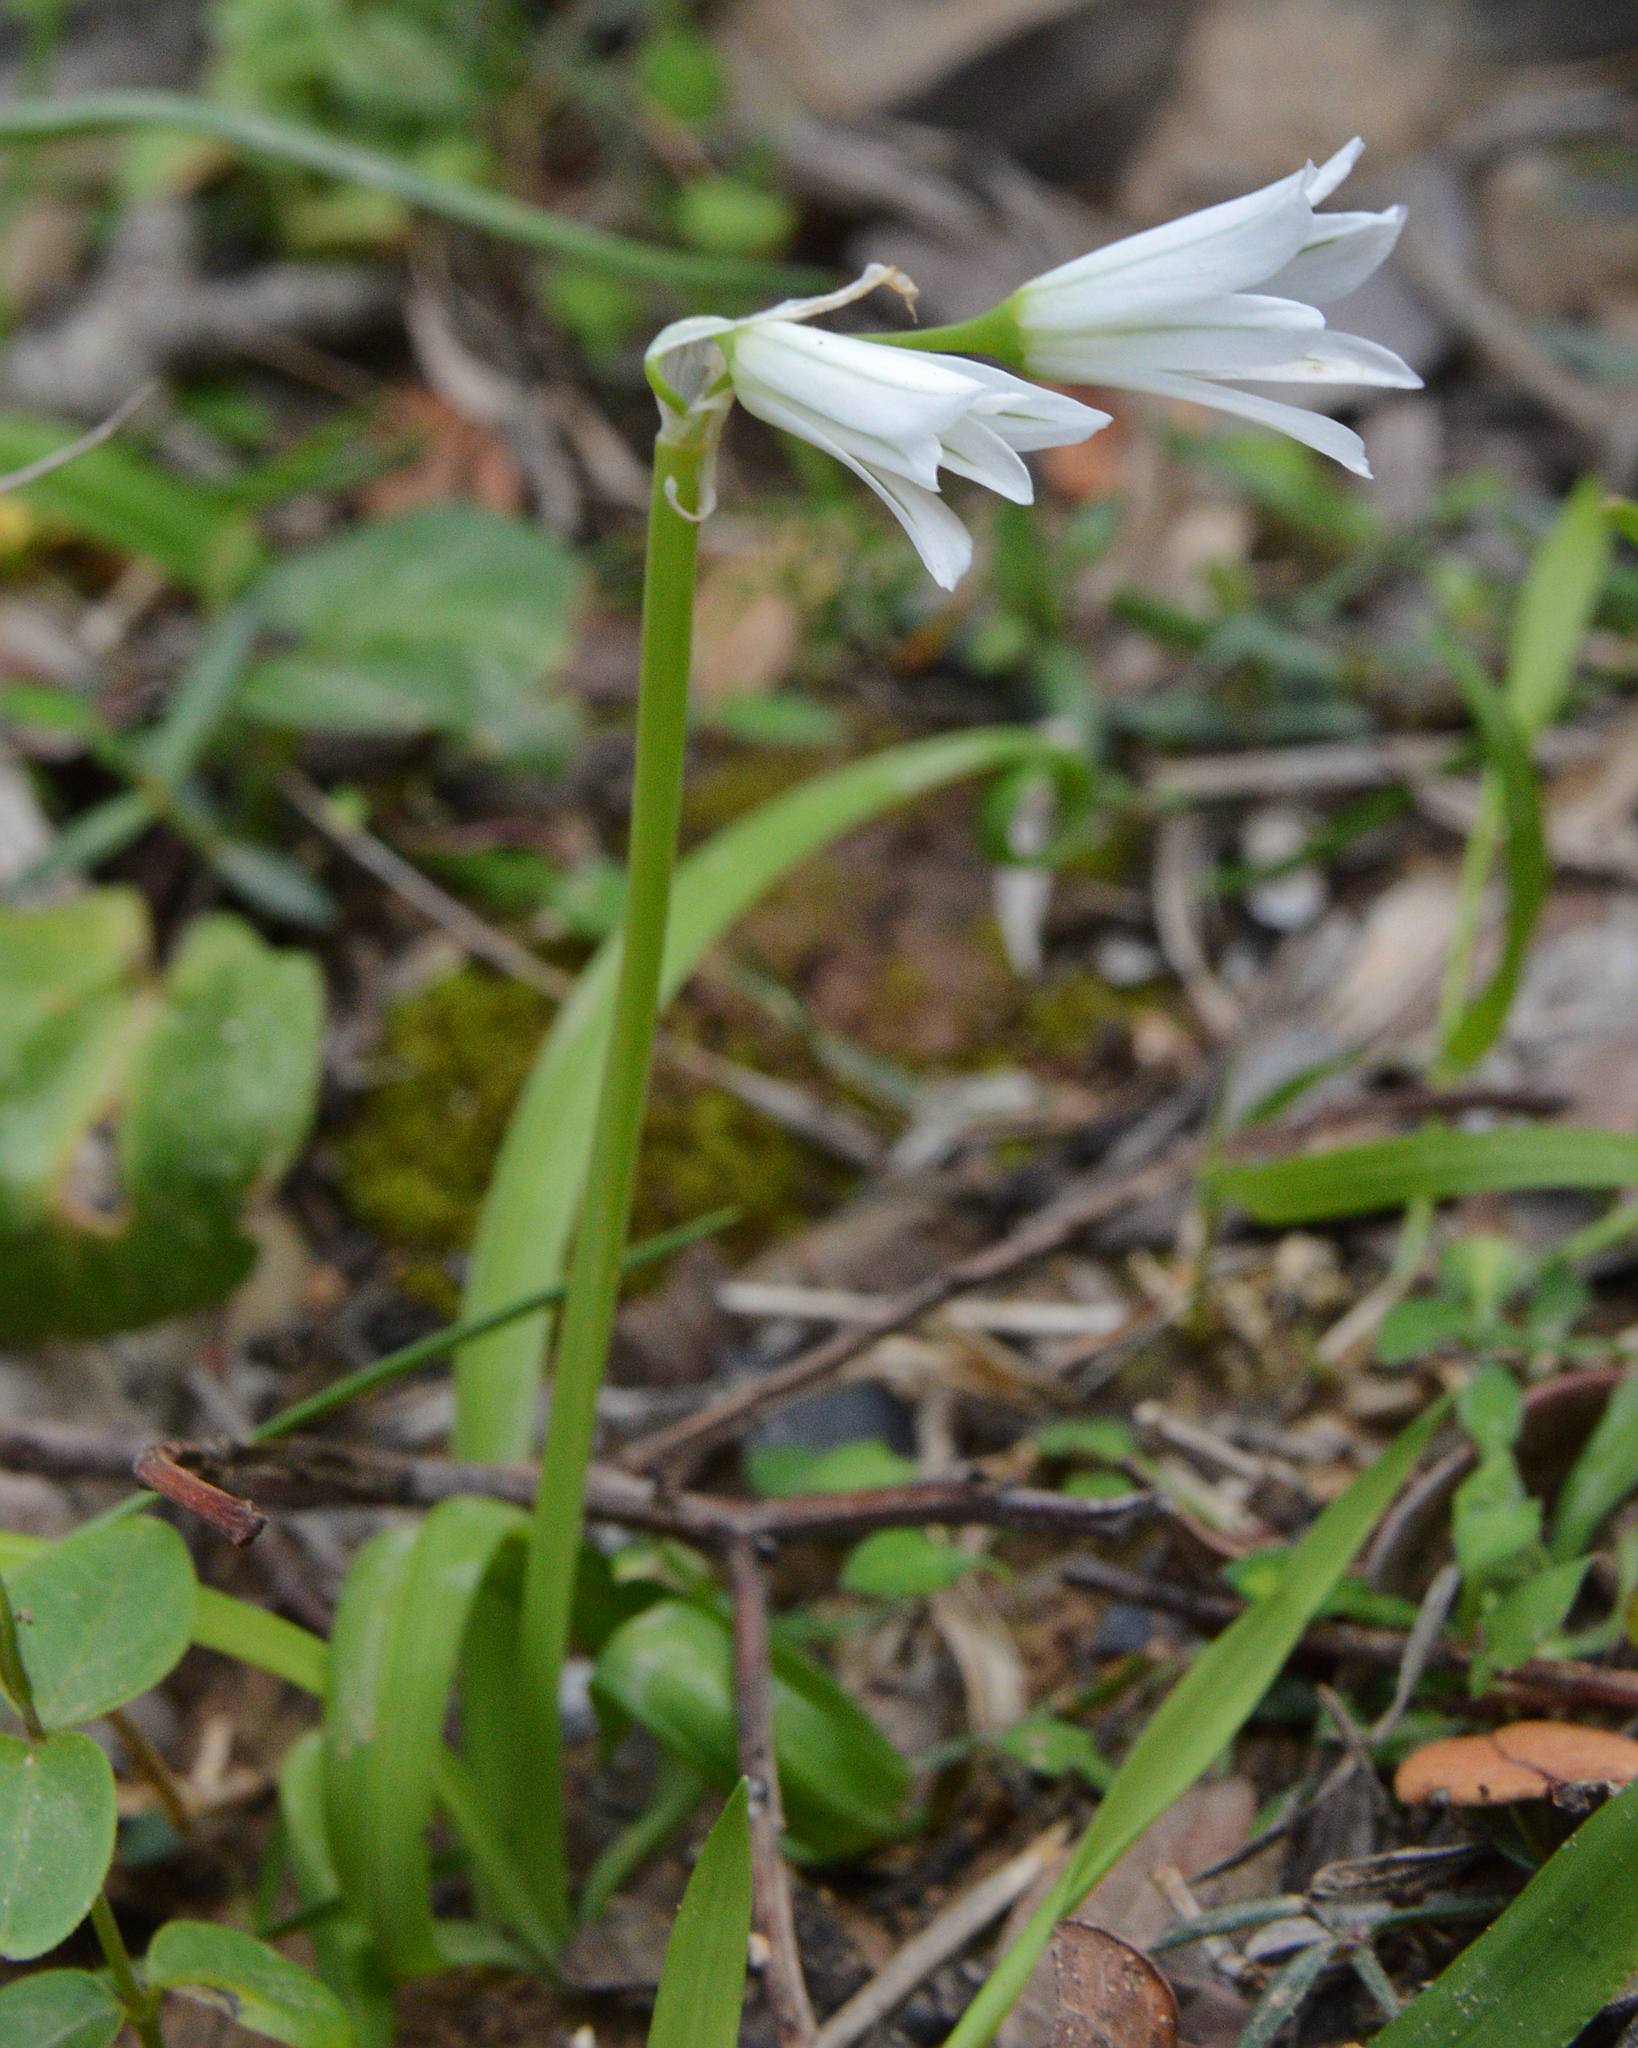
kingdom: Plantae
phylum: Tracheophyta
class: Liliopsida
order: Asparagales
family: Amaryllidaceae
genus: Allium
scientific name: Allium triquetrum
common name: Three-cornered garlic
